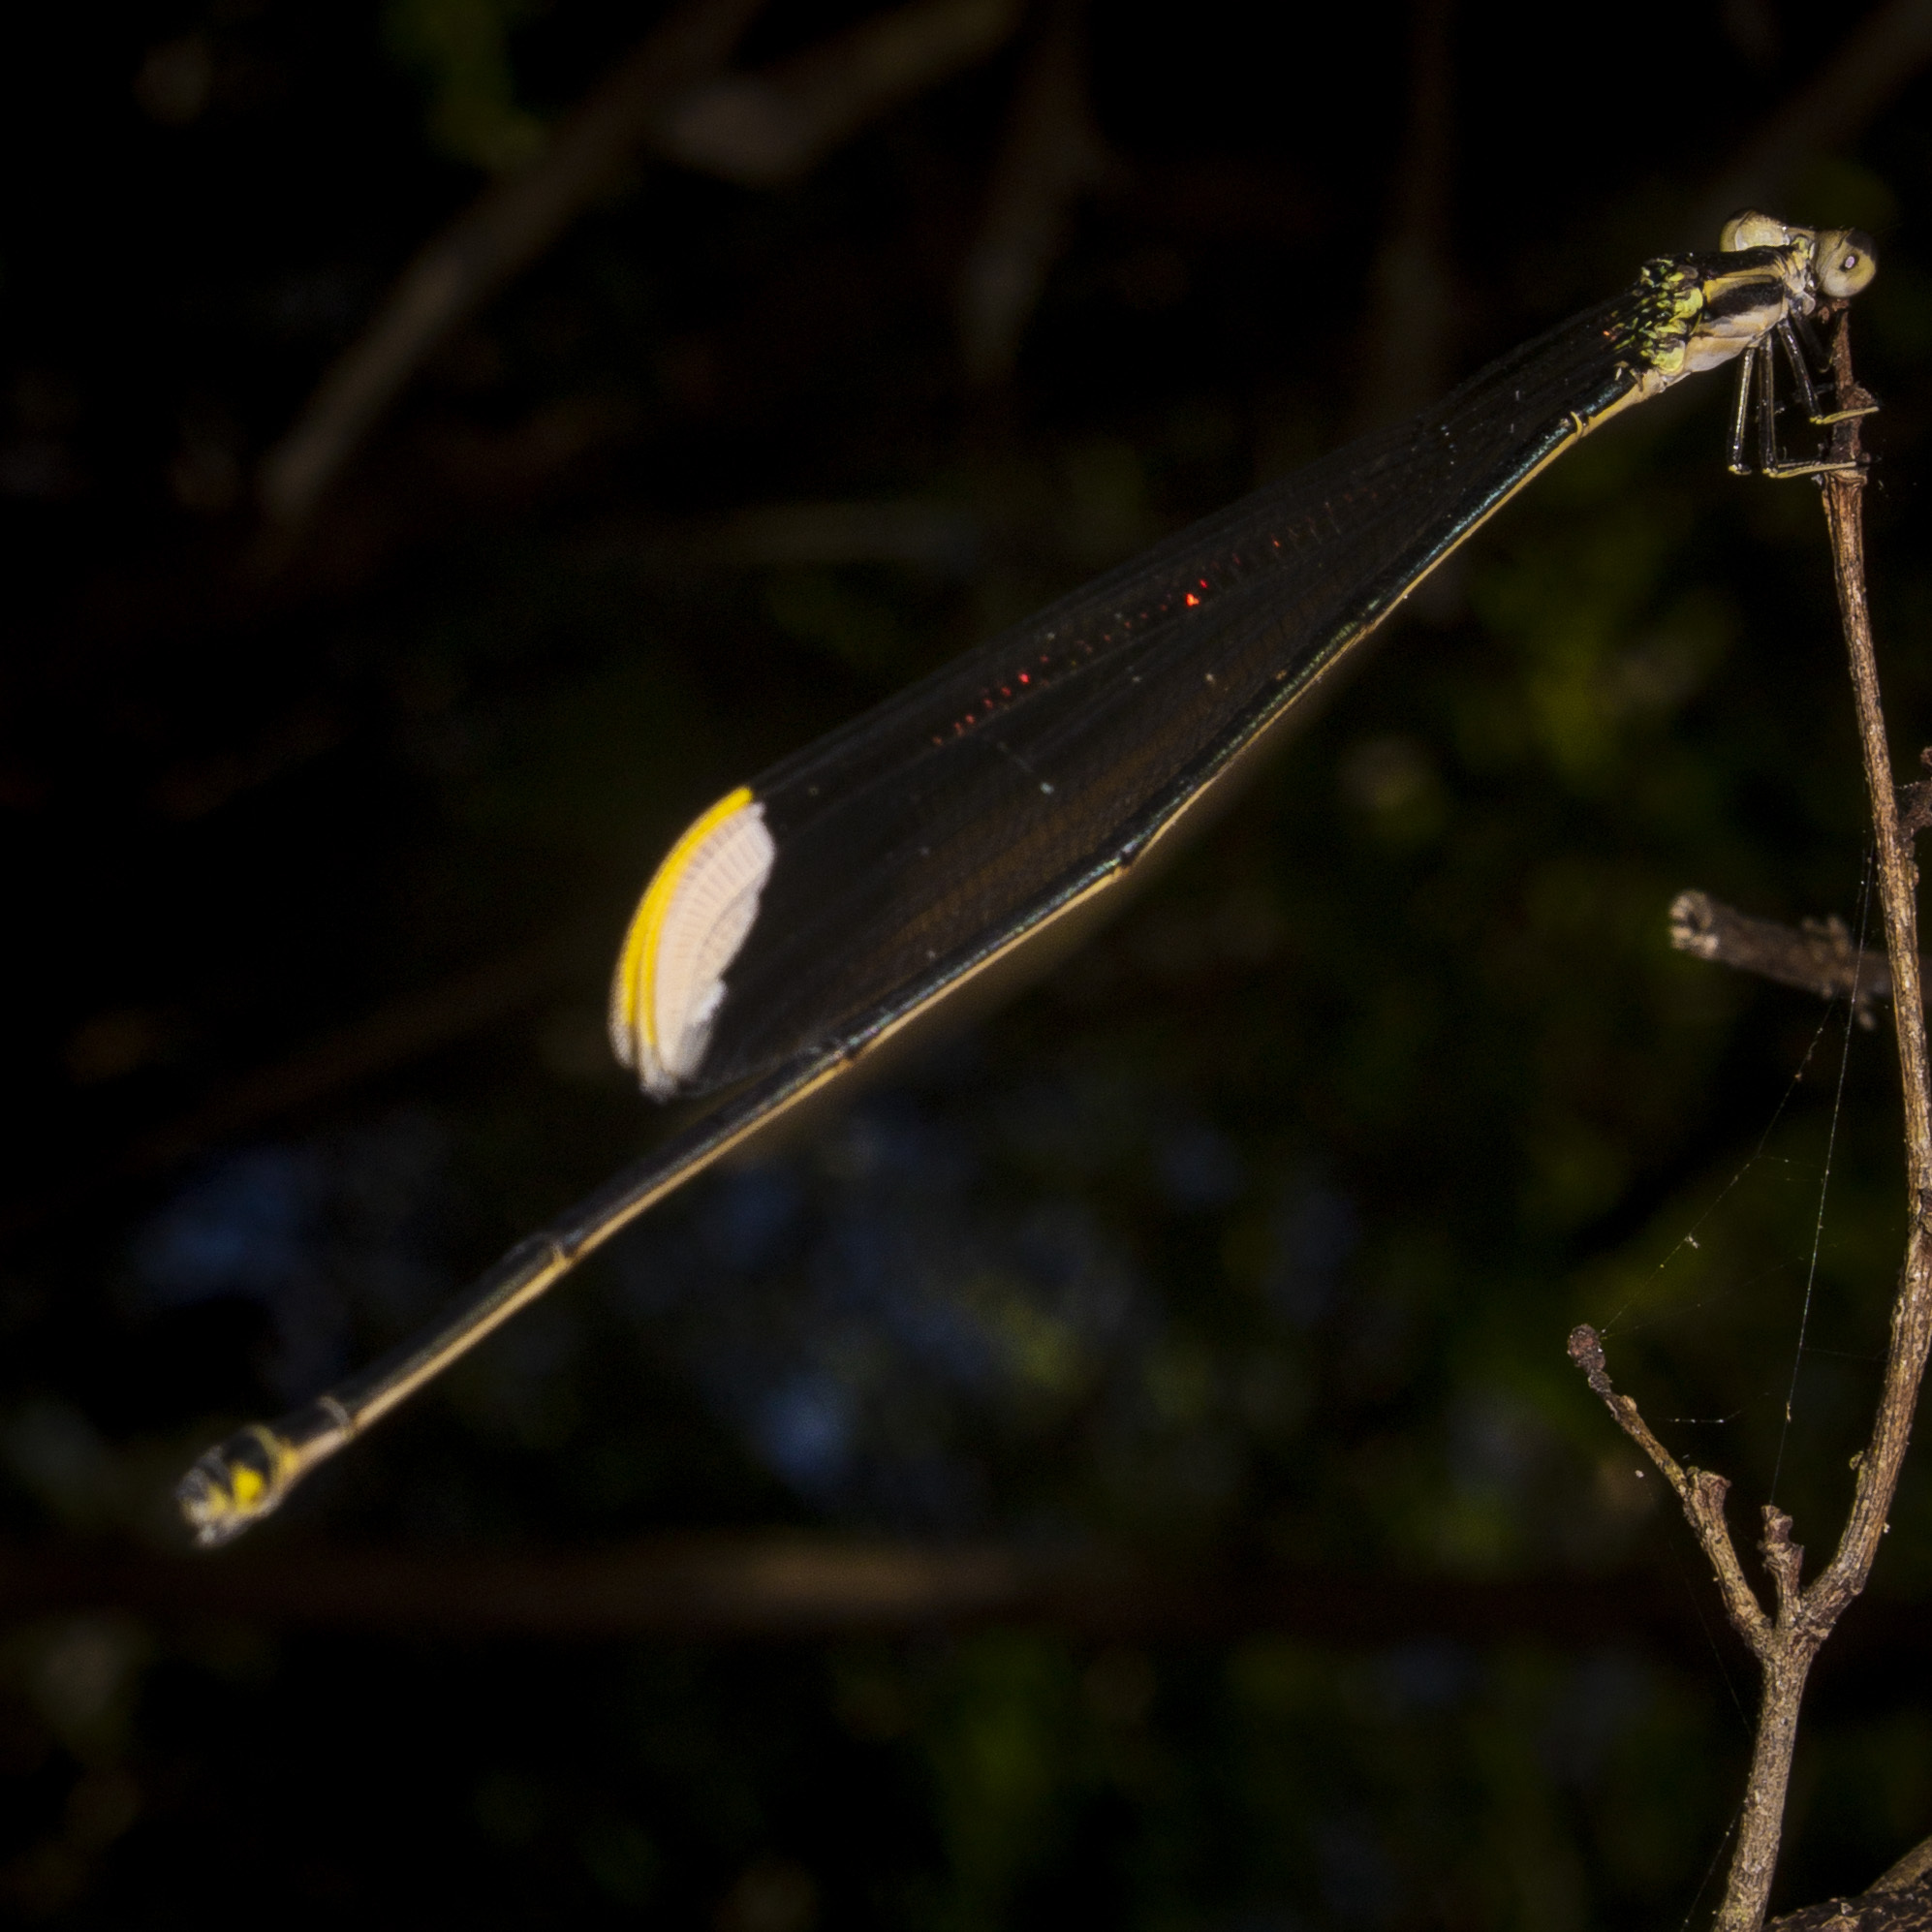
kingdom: Animalia
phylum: Arthropoda
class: Insecta
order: Odonata
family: Coenagrionidae
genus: Mecistogaster
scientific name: Mecistogaster ornata
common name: Ornate helicopter
